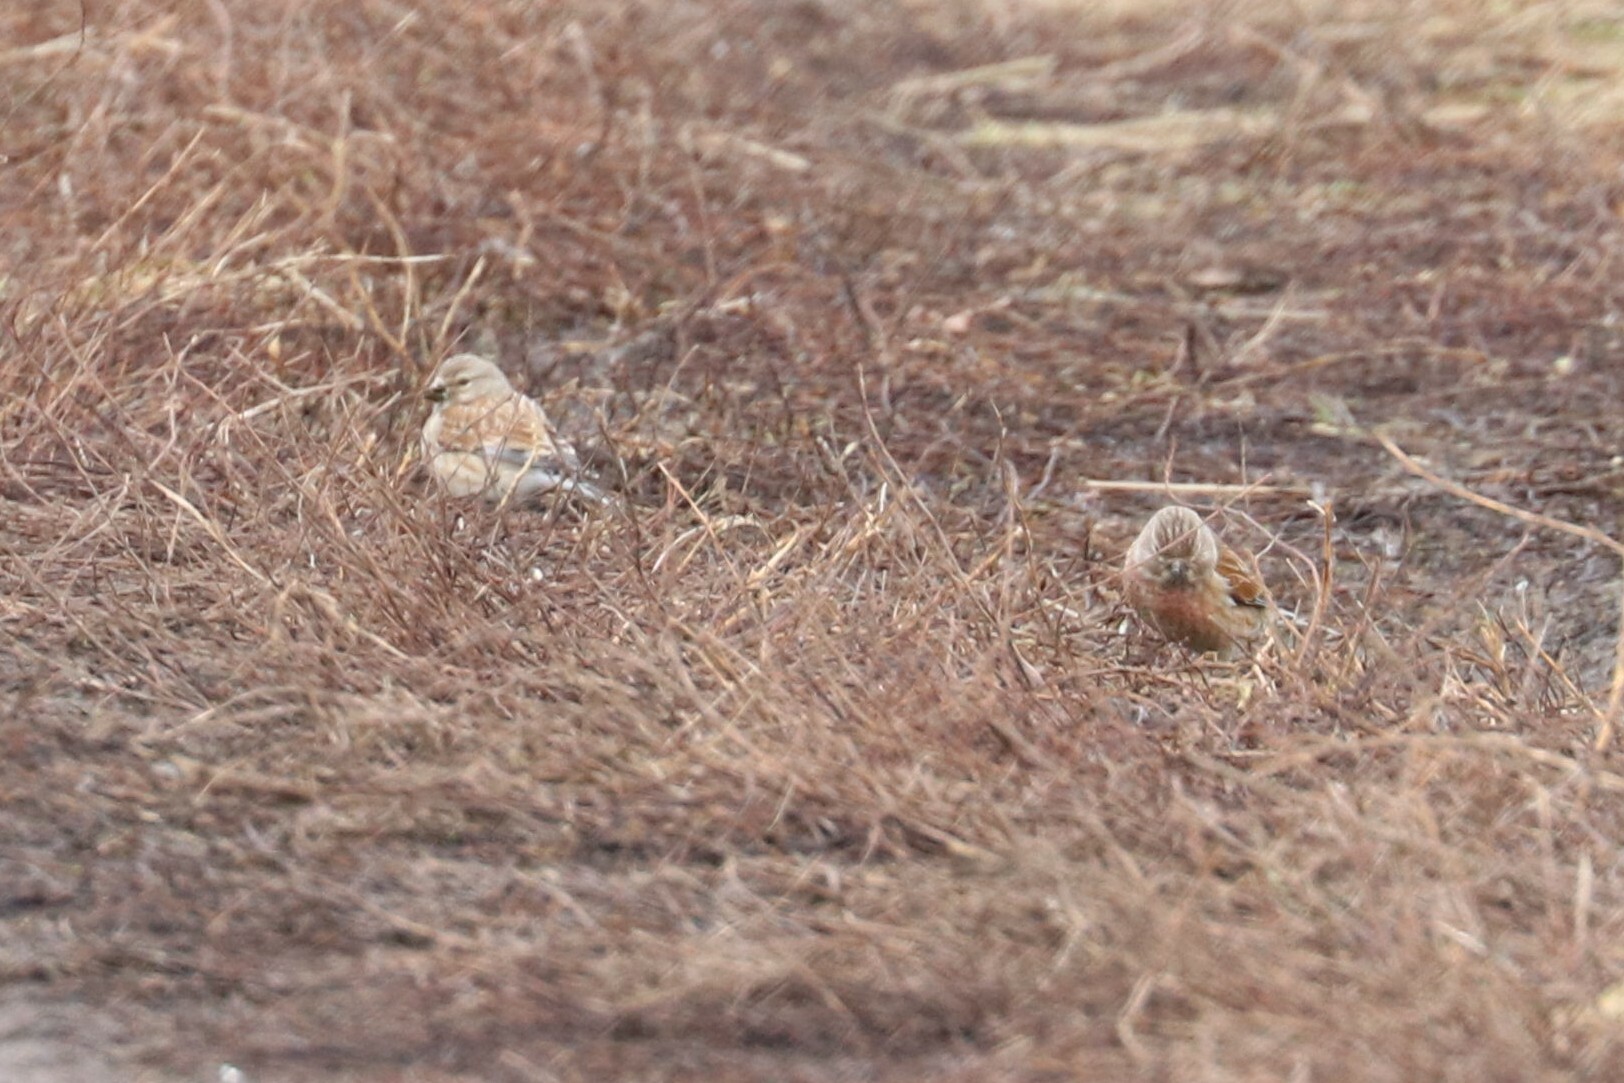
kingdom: Animalia
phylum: Chordata
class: Aves
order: Passeriformes
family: Fringillidae
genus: Linaria
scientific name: Linaria cannabina
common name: Common linnet
